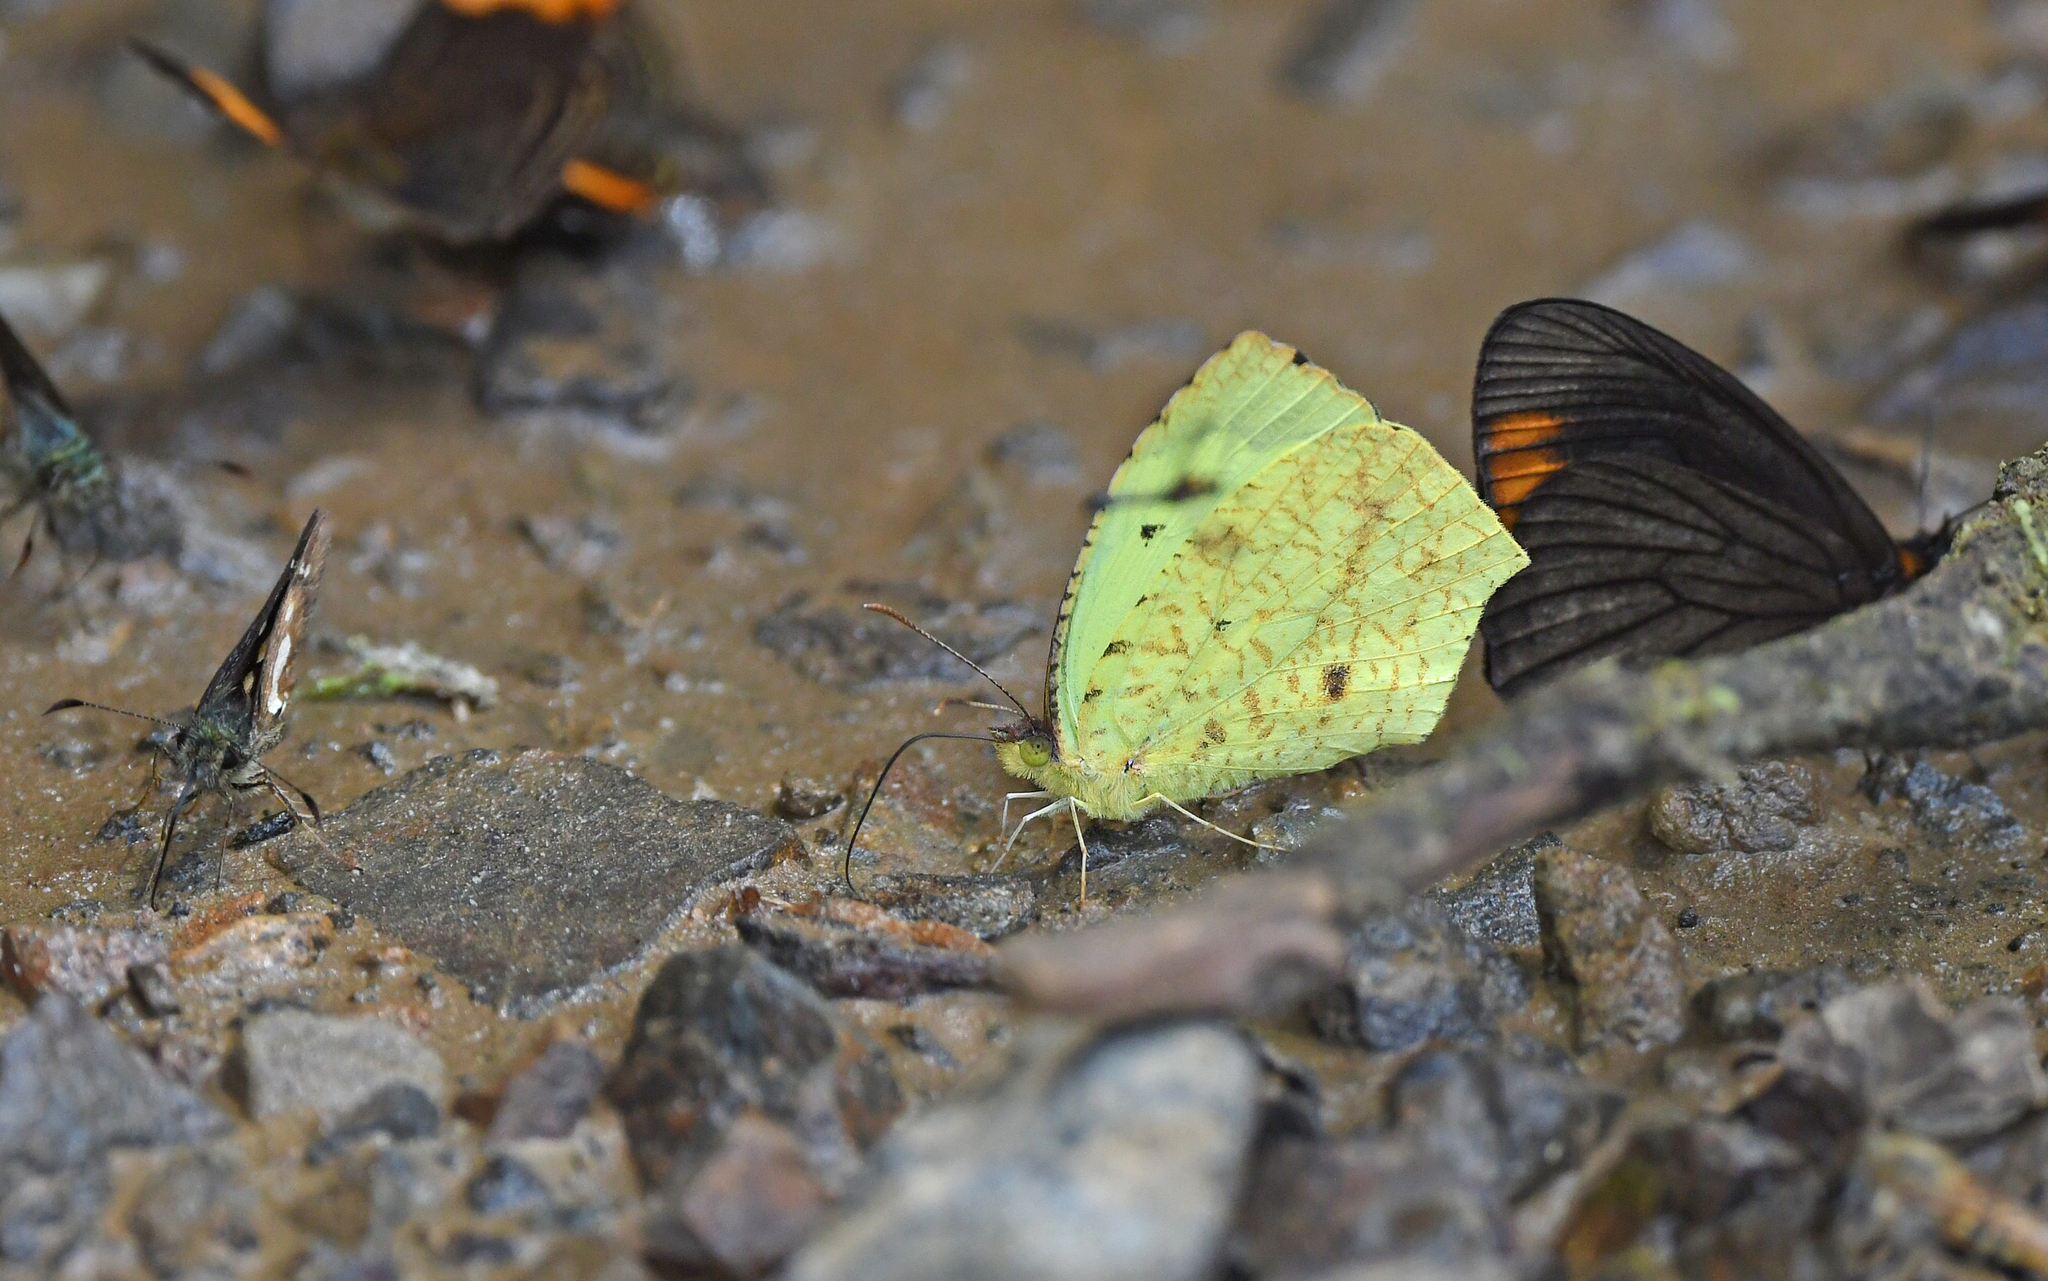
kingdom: Animalia
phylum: Arthropoda
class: Insecta
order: Lepidoptera
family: Pieridae
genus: Abaeis
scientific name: Abaeis salome
